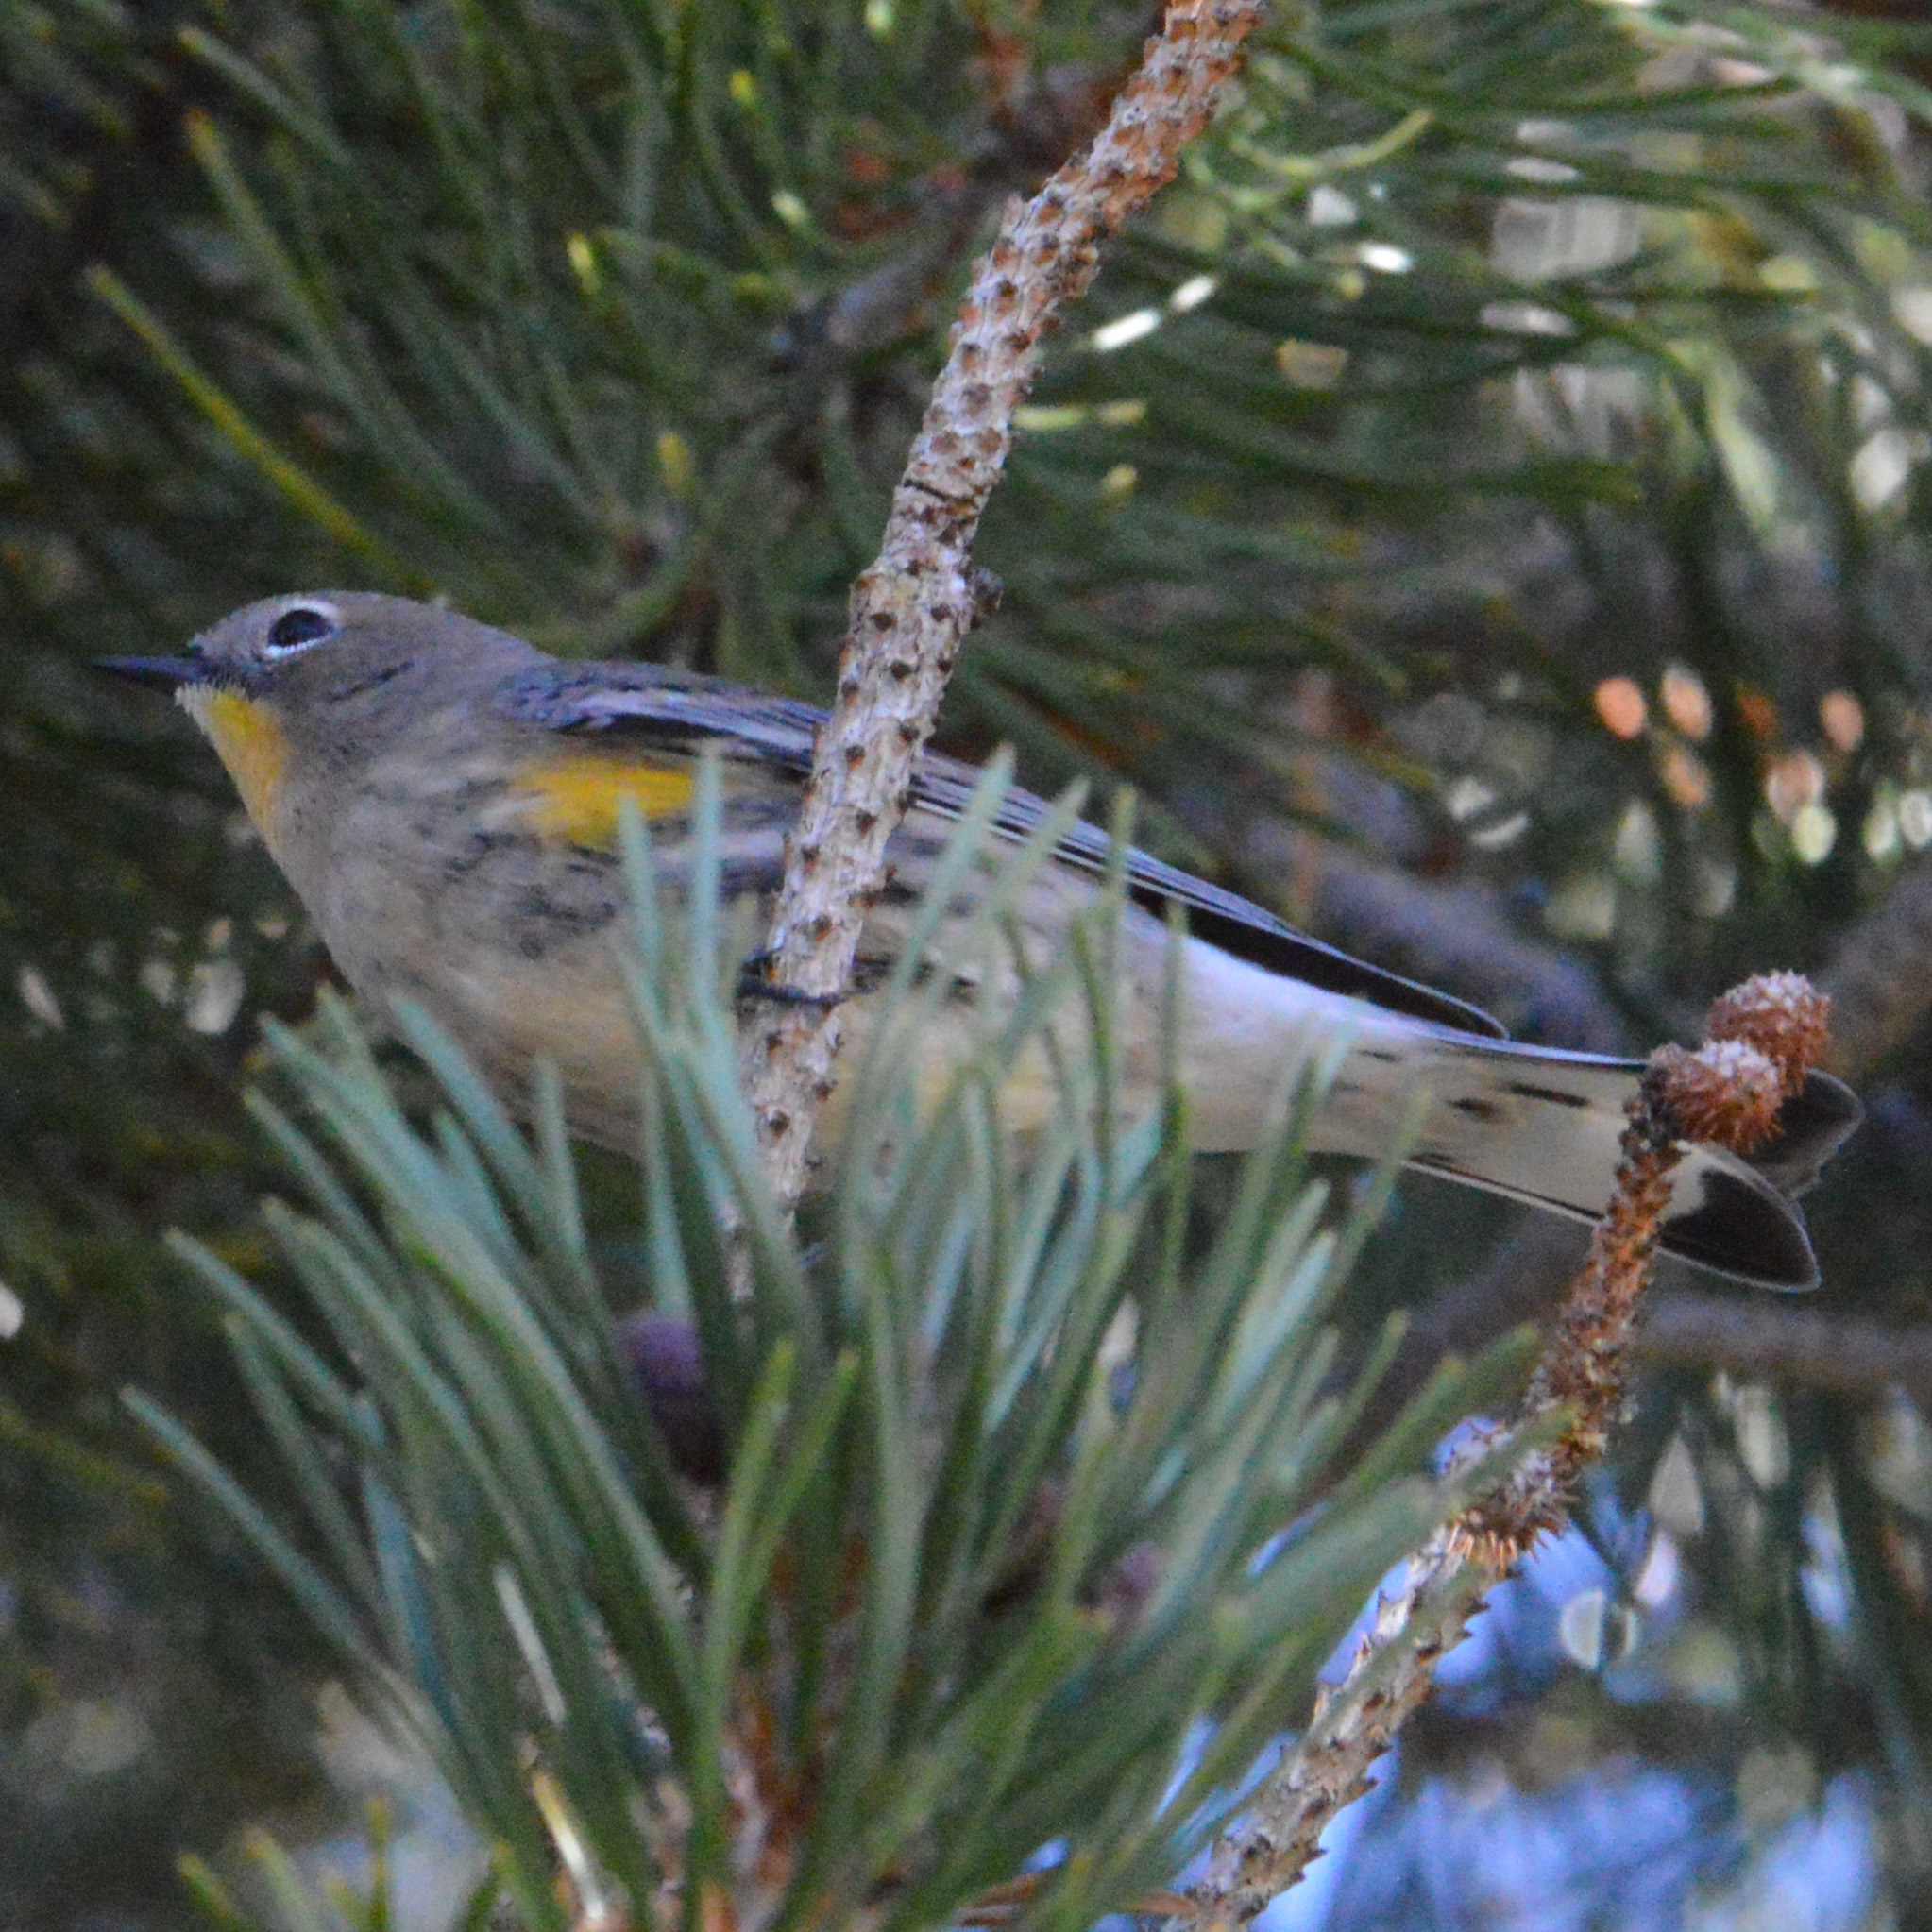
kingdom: Animalia
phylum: Chordata
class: Aves
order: Passeriformes
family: Parulidae
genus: Setophaga
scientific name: Setophaga coronata
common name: Myrtle warbler
